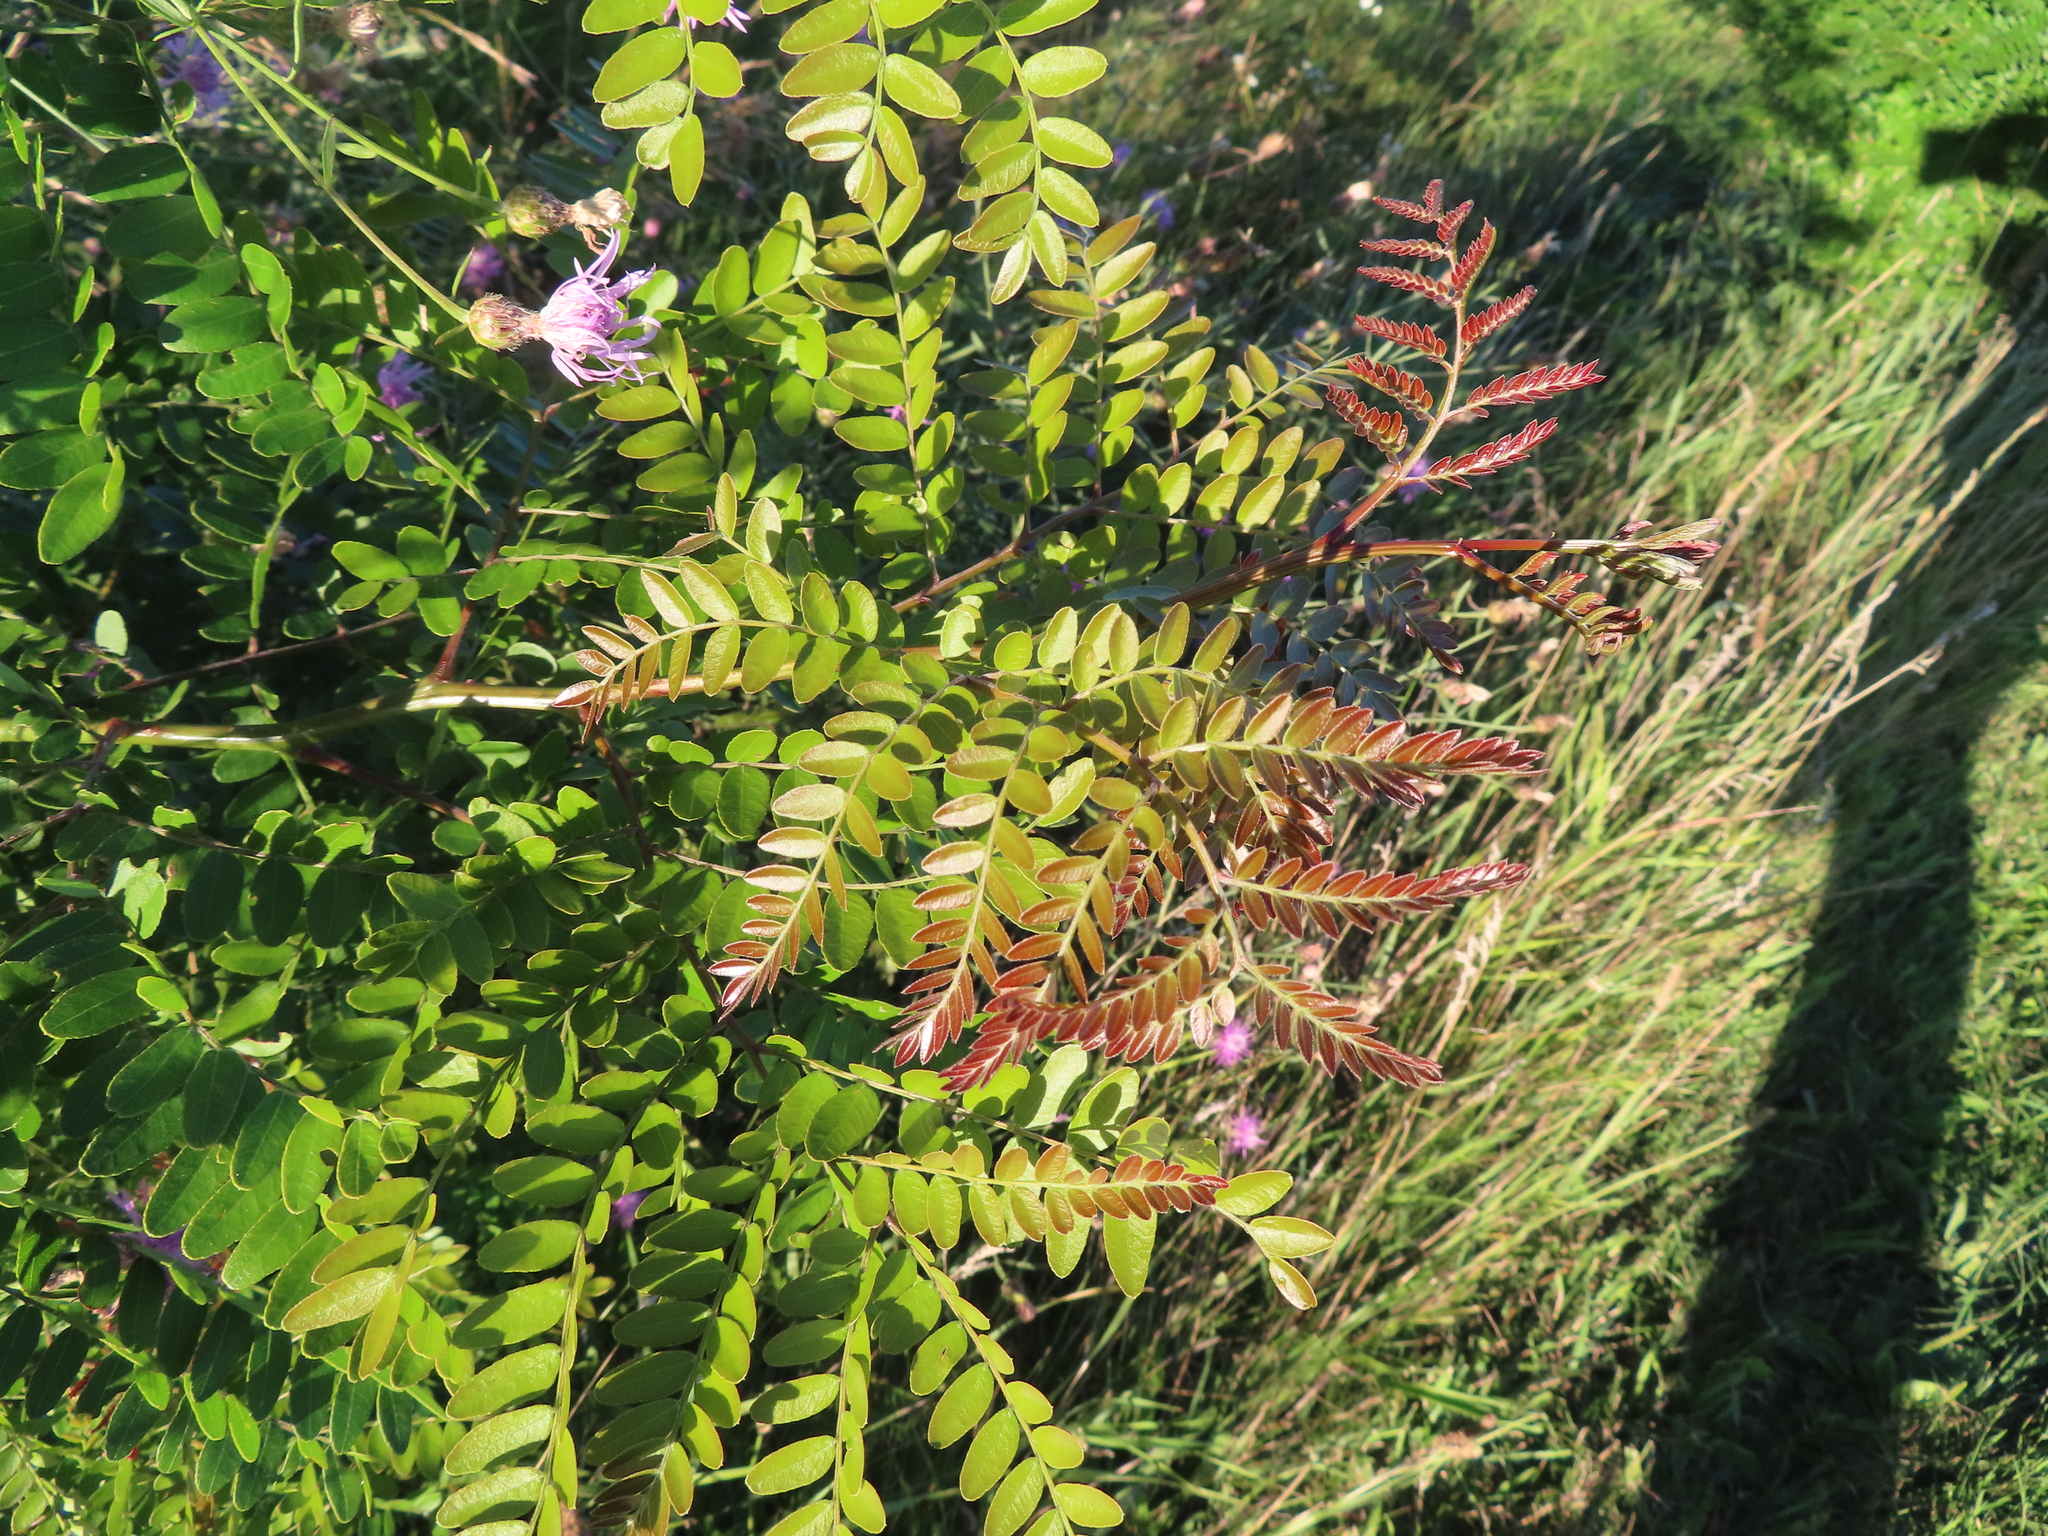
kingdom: Plantae
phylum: Tracheophyta
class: Magnoliopsida
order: Fabales
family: Fabaceae
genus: Gleditsia
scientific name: Gleditsia triacanthos
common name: Common honeylocust
